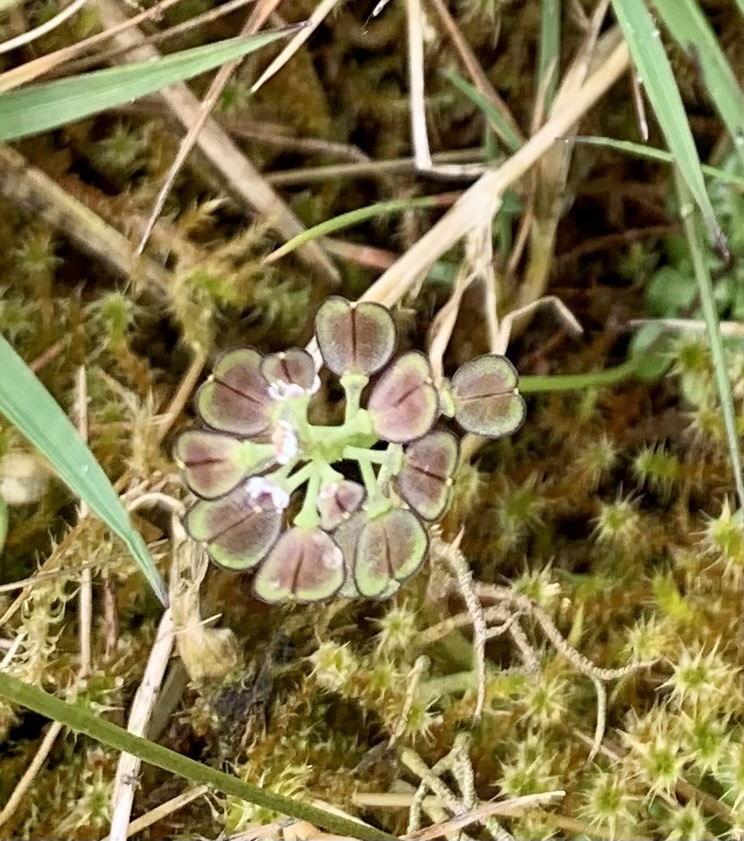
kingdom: Plantae
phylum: Tracheophyta
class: Magnoliopsida
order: Brassicales
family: Brassicaceae
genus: Teesdalia
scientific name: Teesdalia nudicaulis
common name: Shepherd's cress
